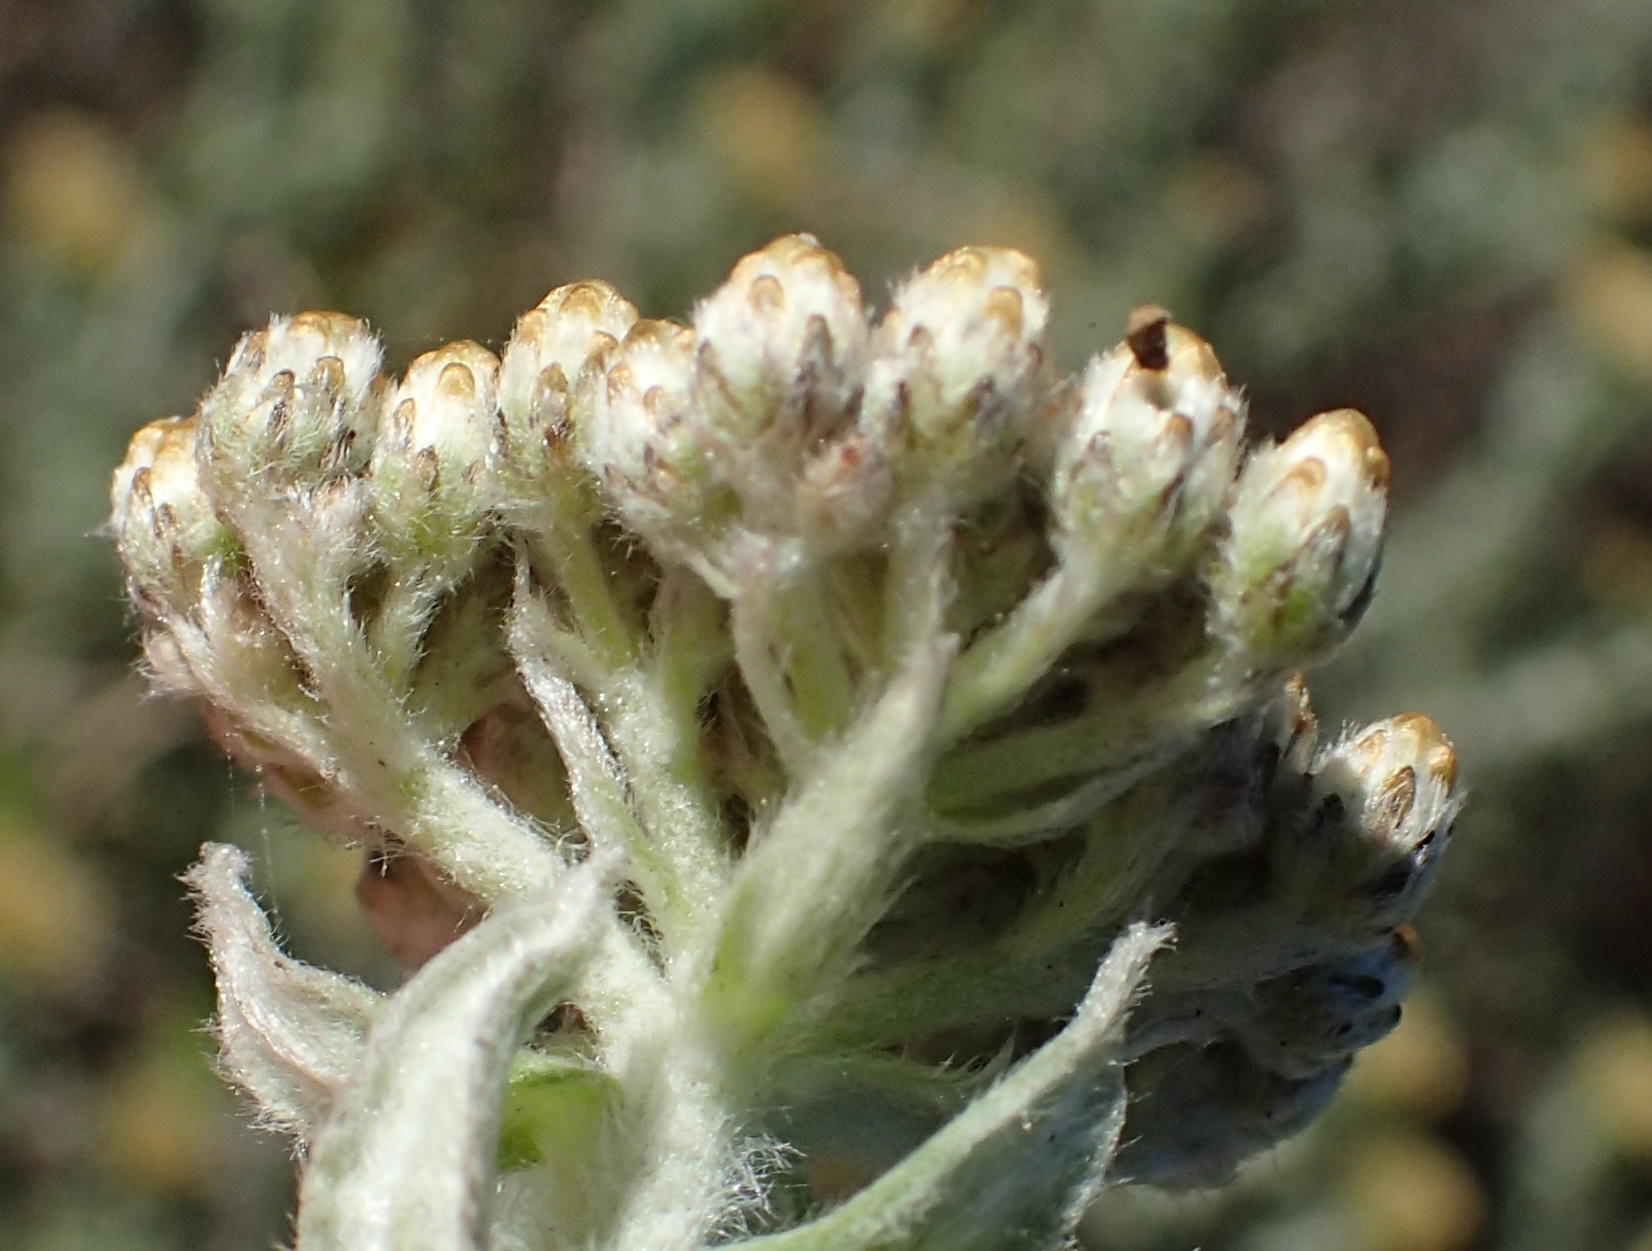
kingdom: Plantae
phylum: Tracheophyta
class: Magnoliopsida
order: Asterales
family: Asteraceae
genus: Helichrysum
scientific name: Helichrysum dasyanthum
